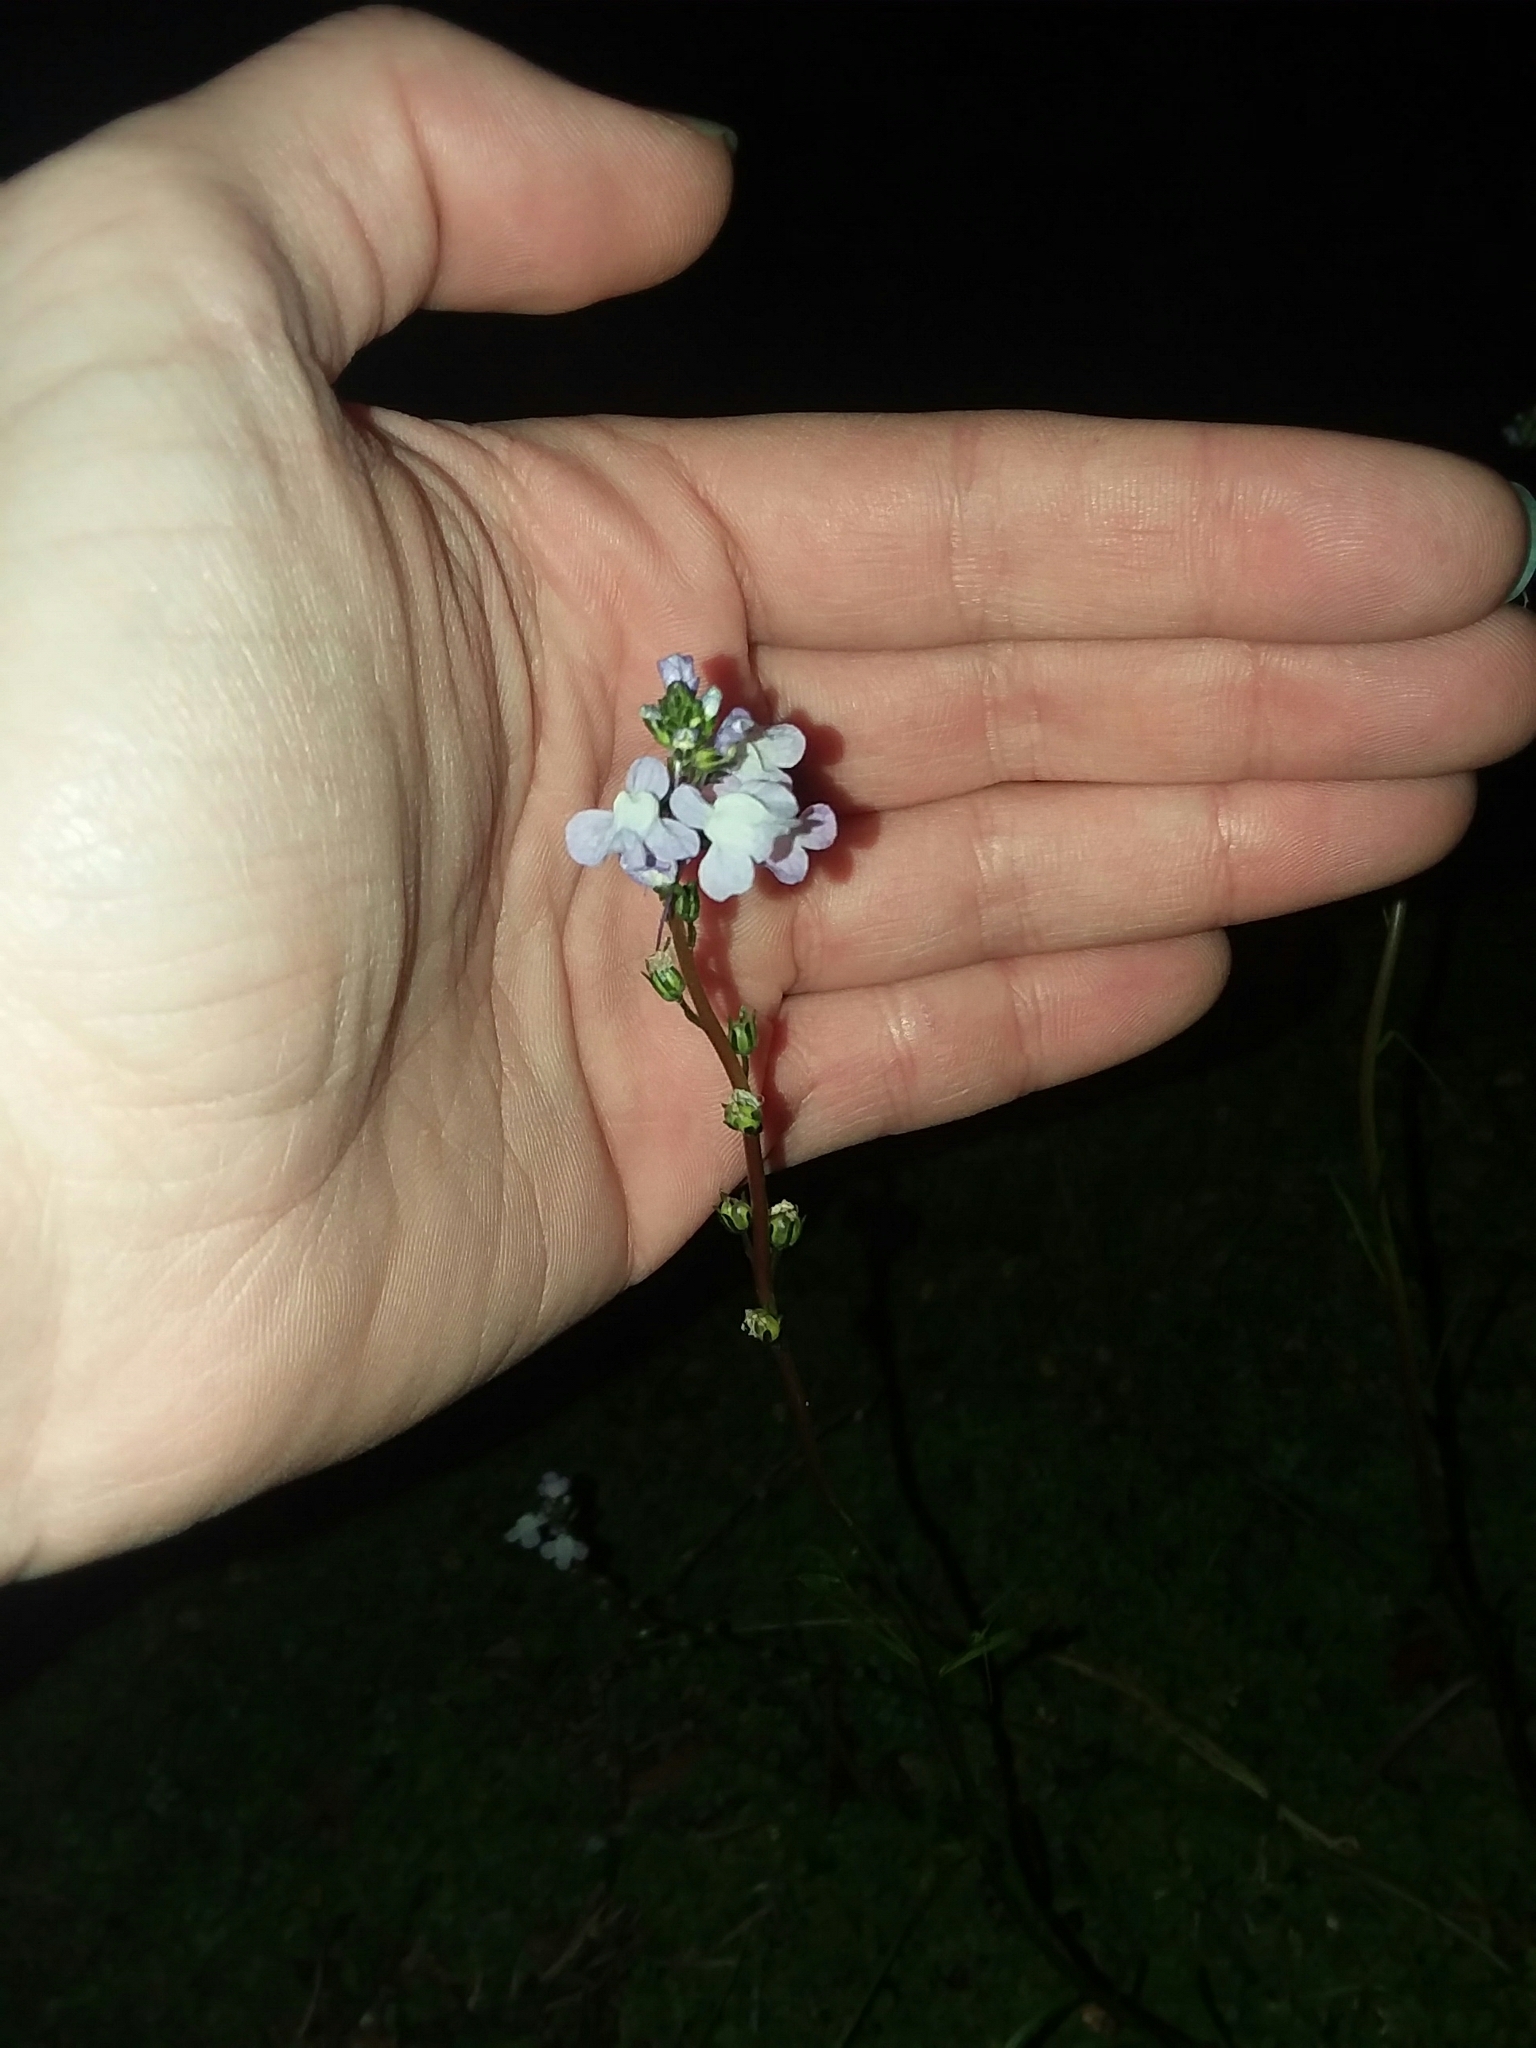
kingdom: Plantae
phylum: Tracheophyta
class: Magnoliopsida
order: Lamiales
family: Plantaginaceae
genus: Nuttallanthus
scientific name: Nuttallanthus canadensis
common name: Blue toadflax
